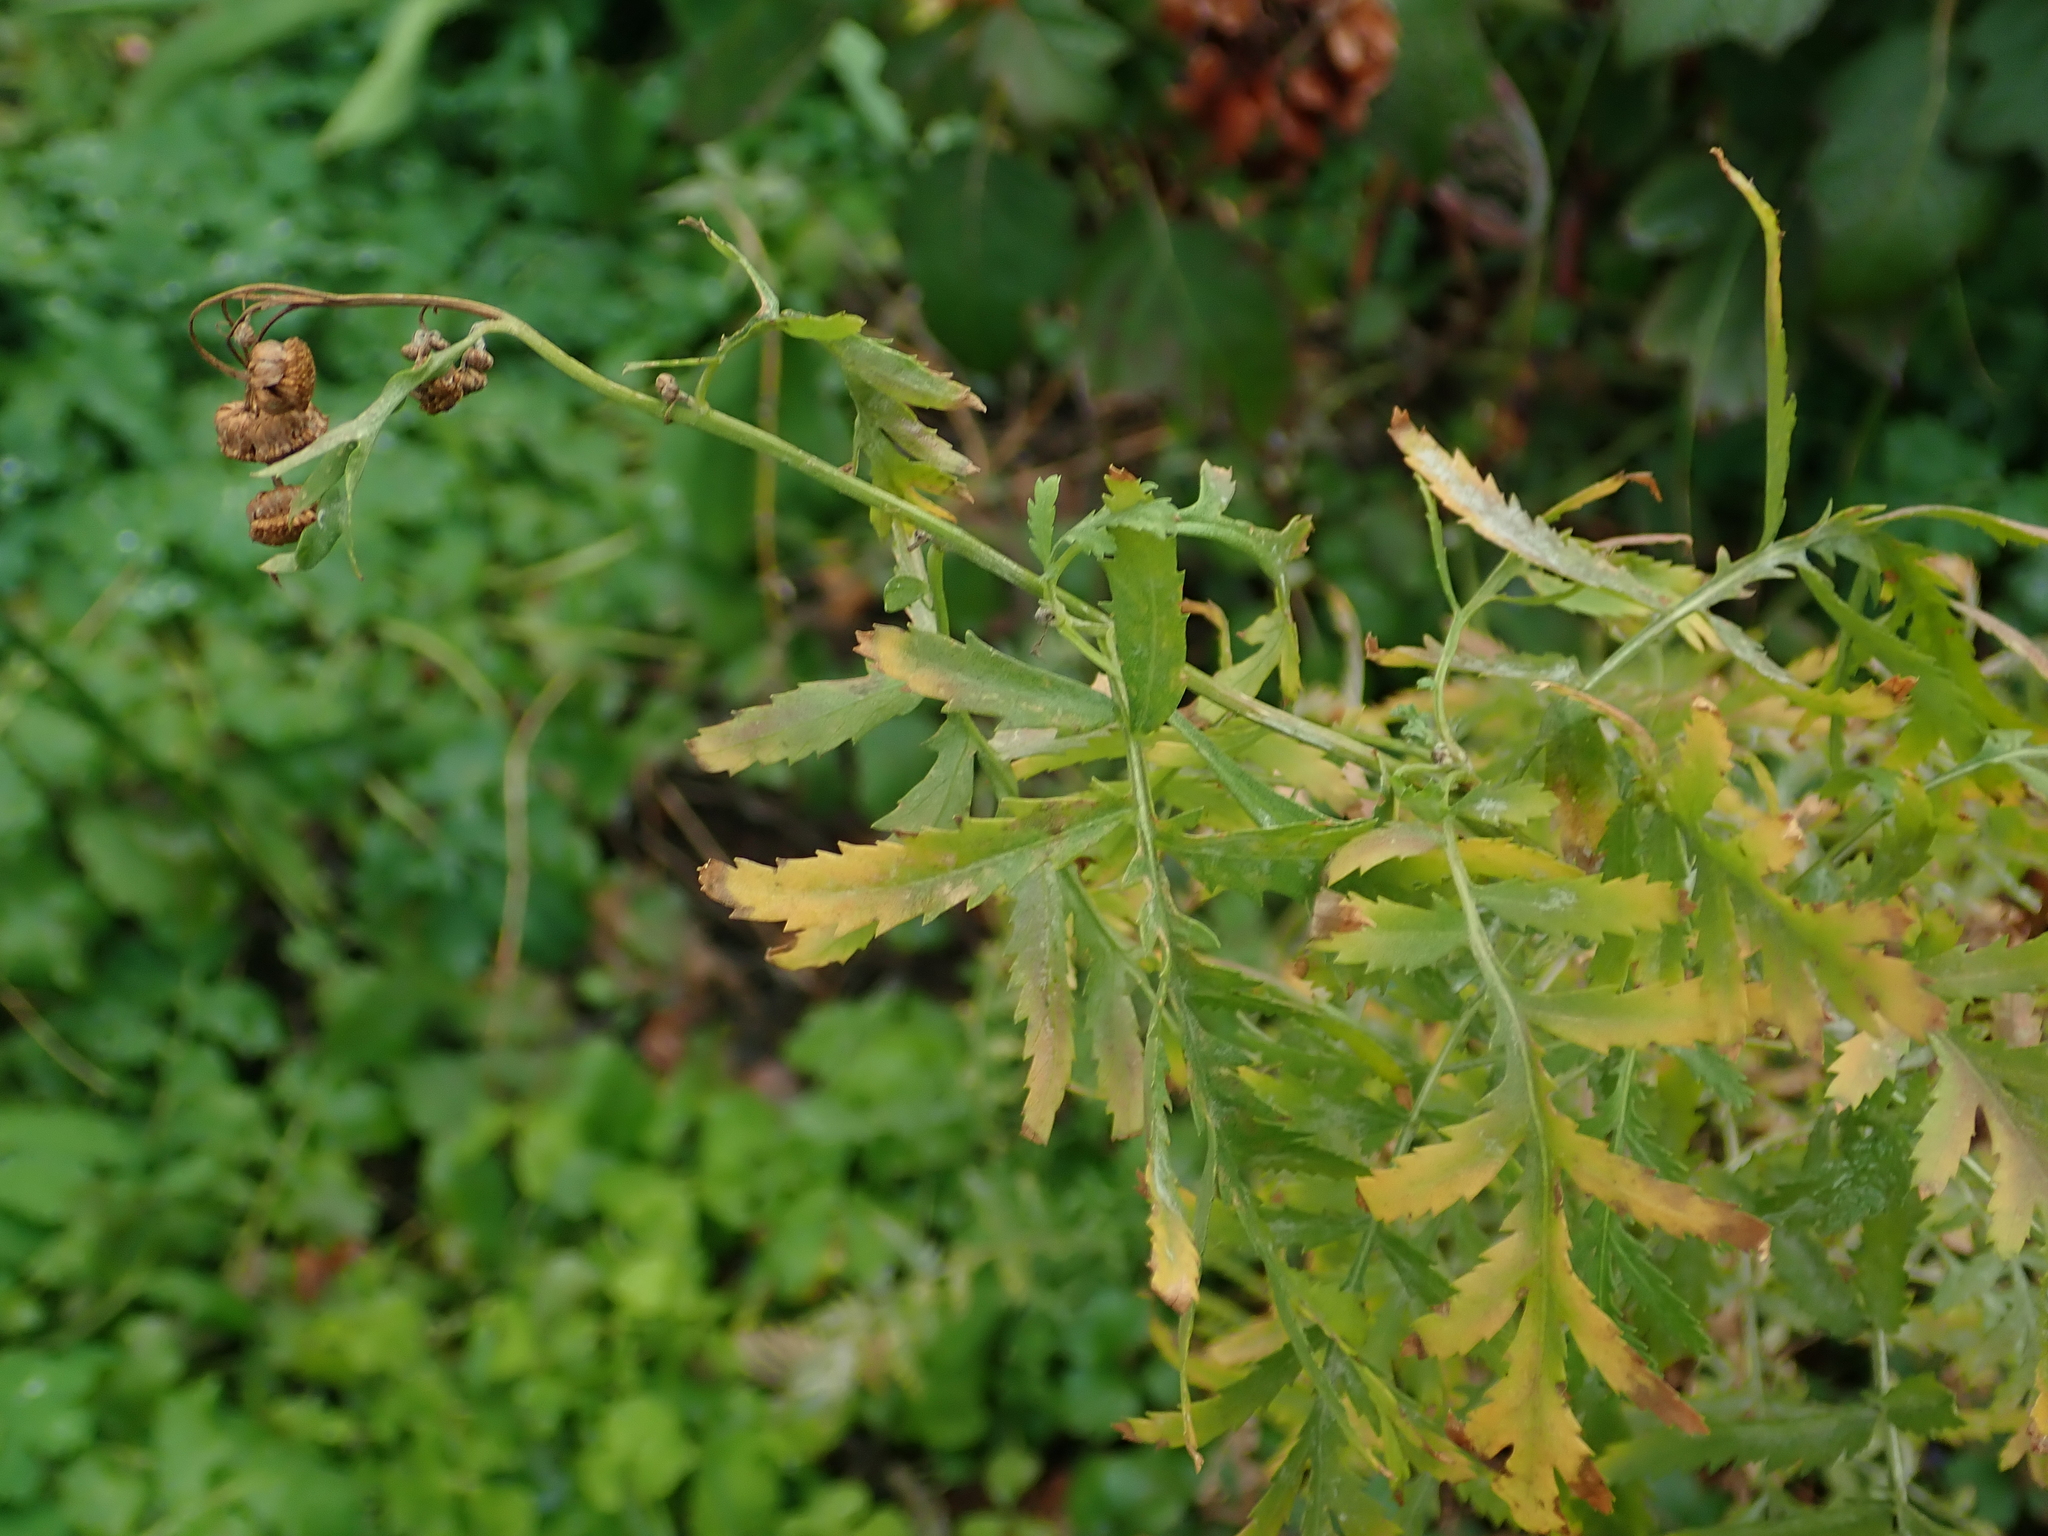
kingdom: Plantae
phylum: Tracheophyta
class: Magnoliopsida
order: Asterales
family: Asteraceae
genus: Tanacetum
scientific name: Tanacetum vulgare
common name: Common tansy
